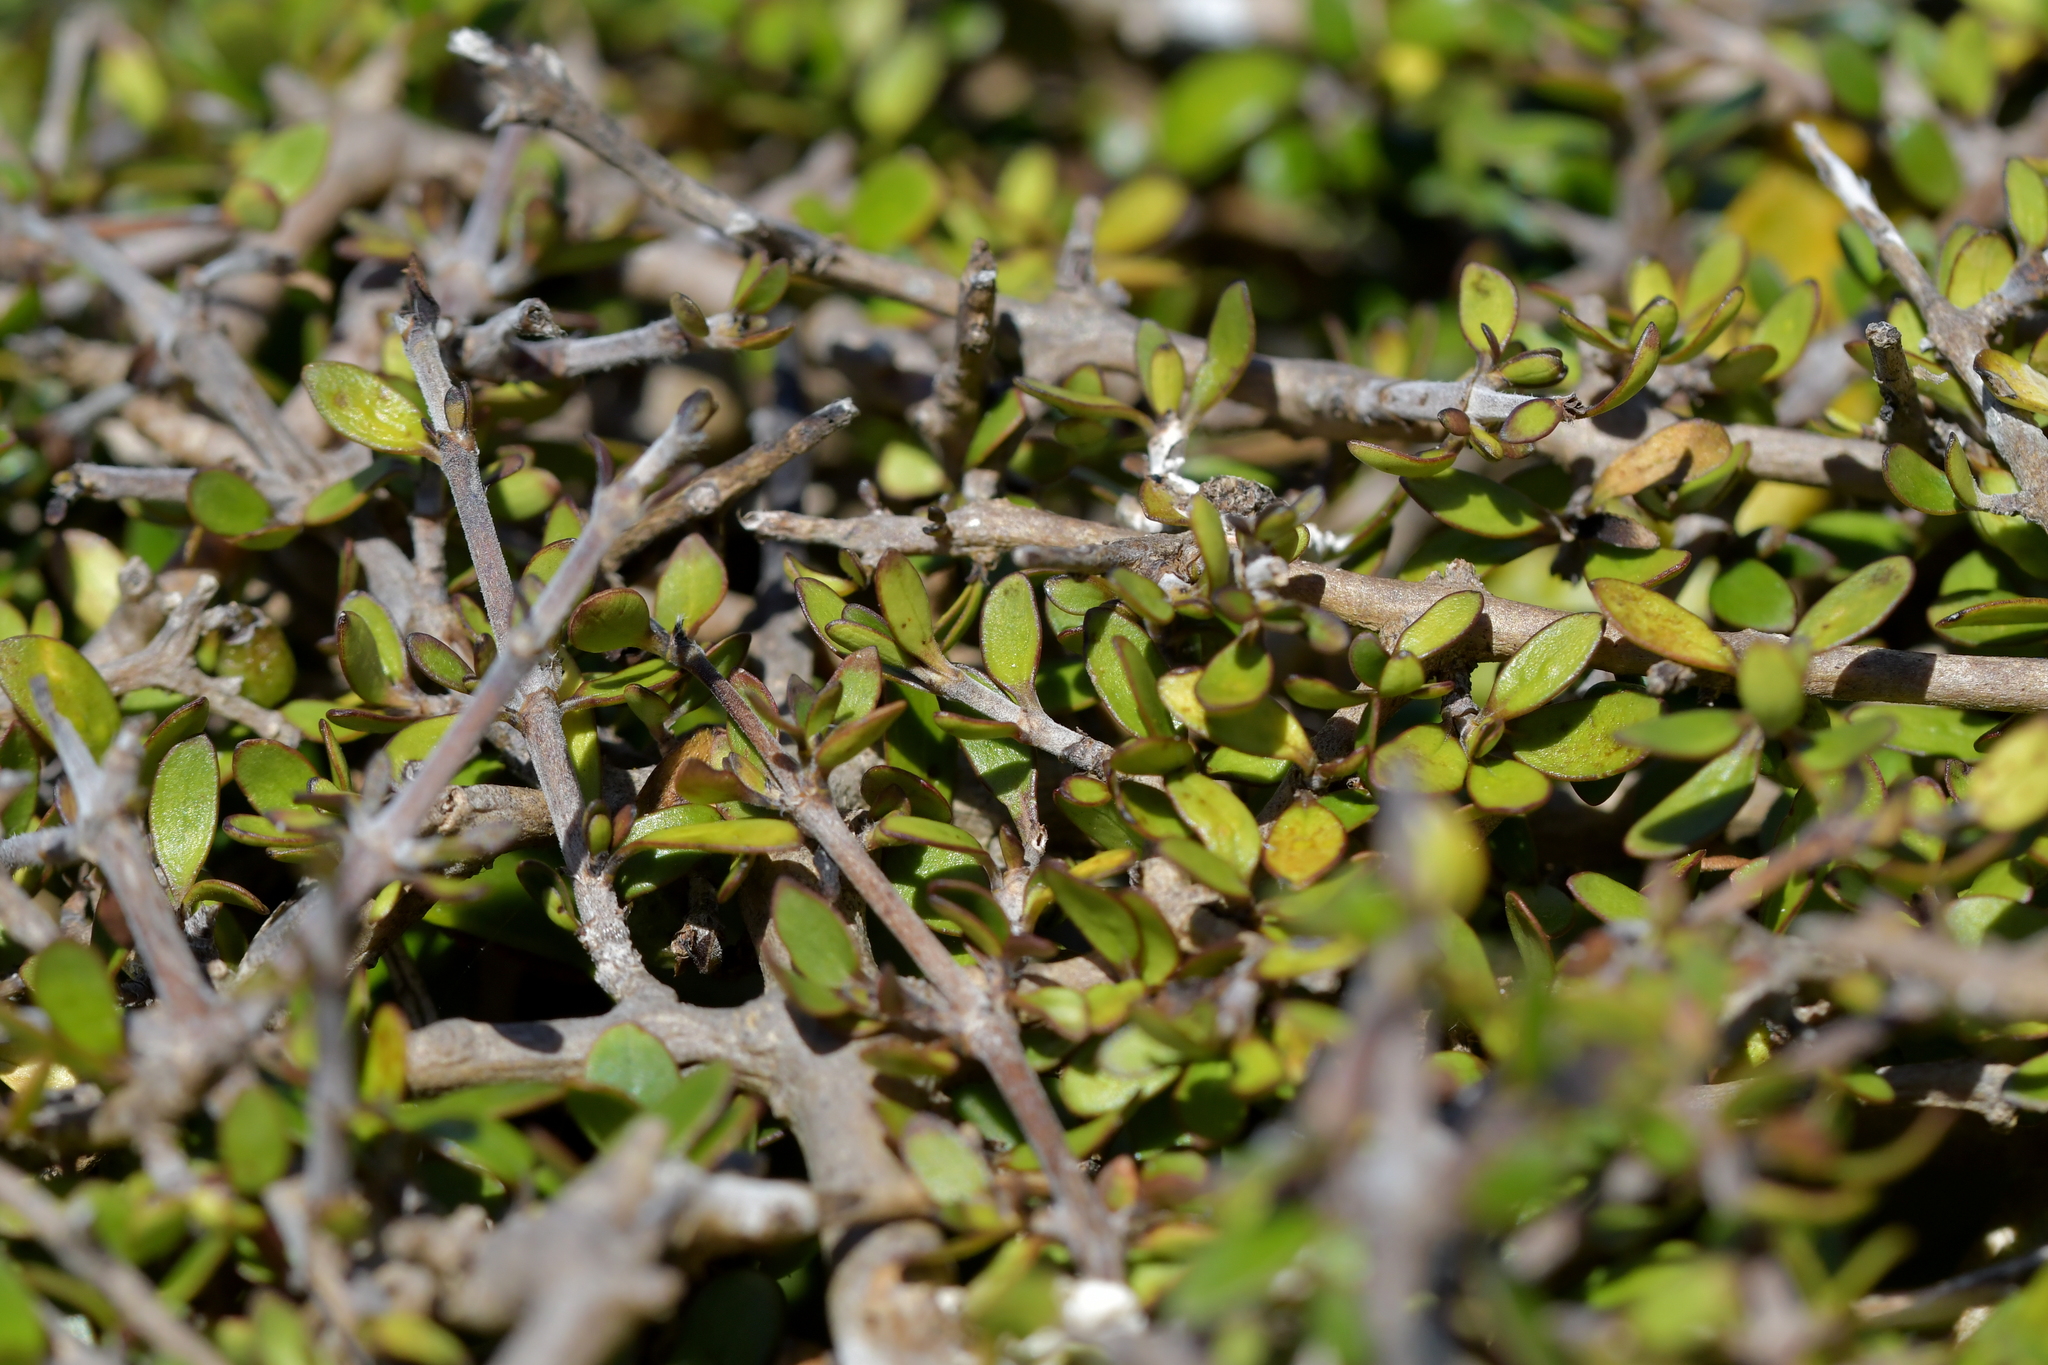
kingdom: Plantae
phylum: Tracheophyta
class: Magnoliopsida
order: Gentianales
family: Rubiaceae
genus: Coprosma
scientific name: Coprosma propinqua
